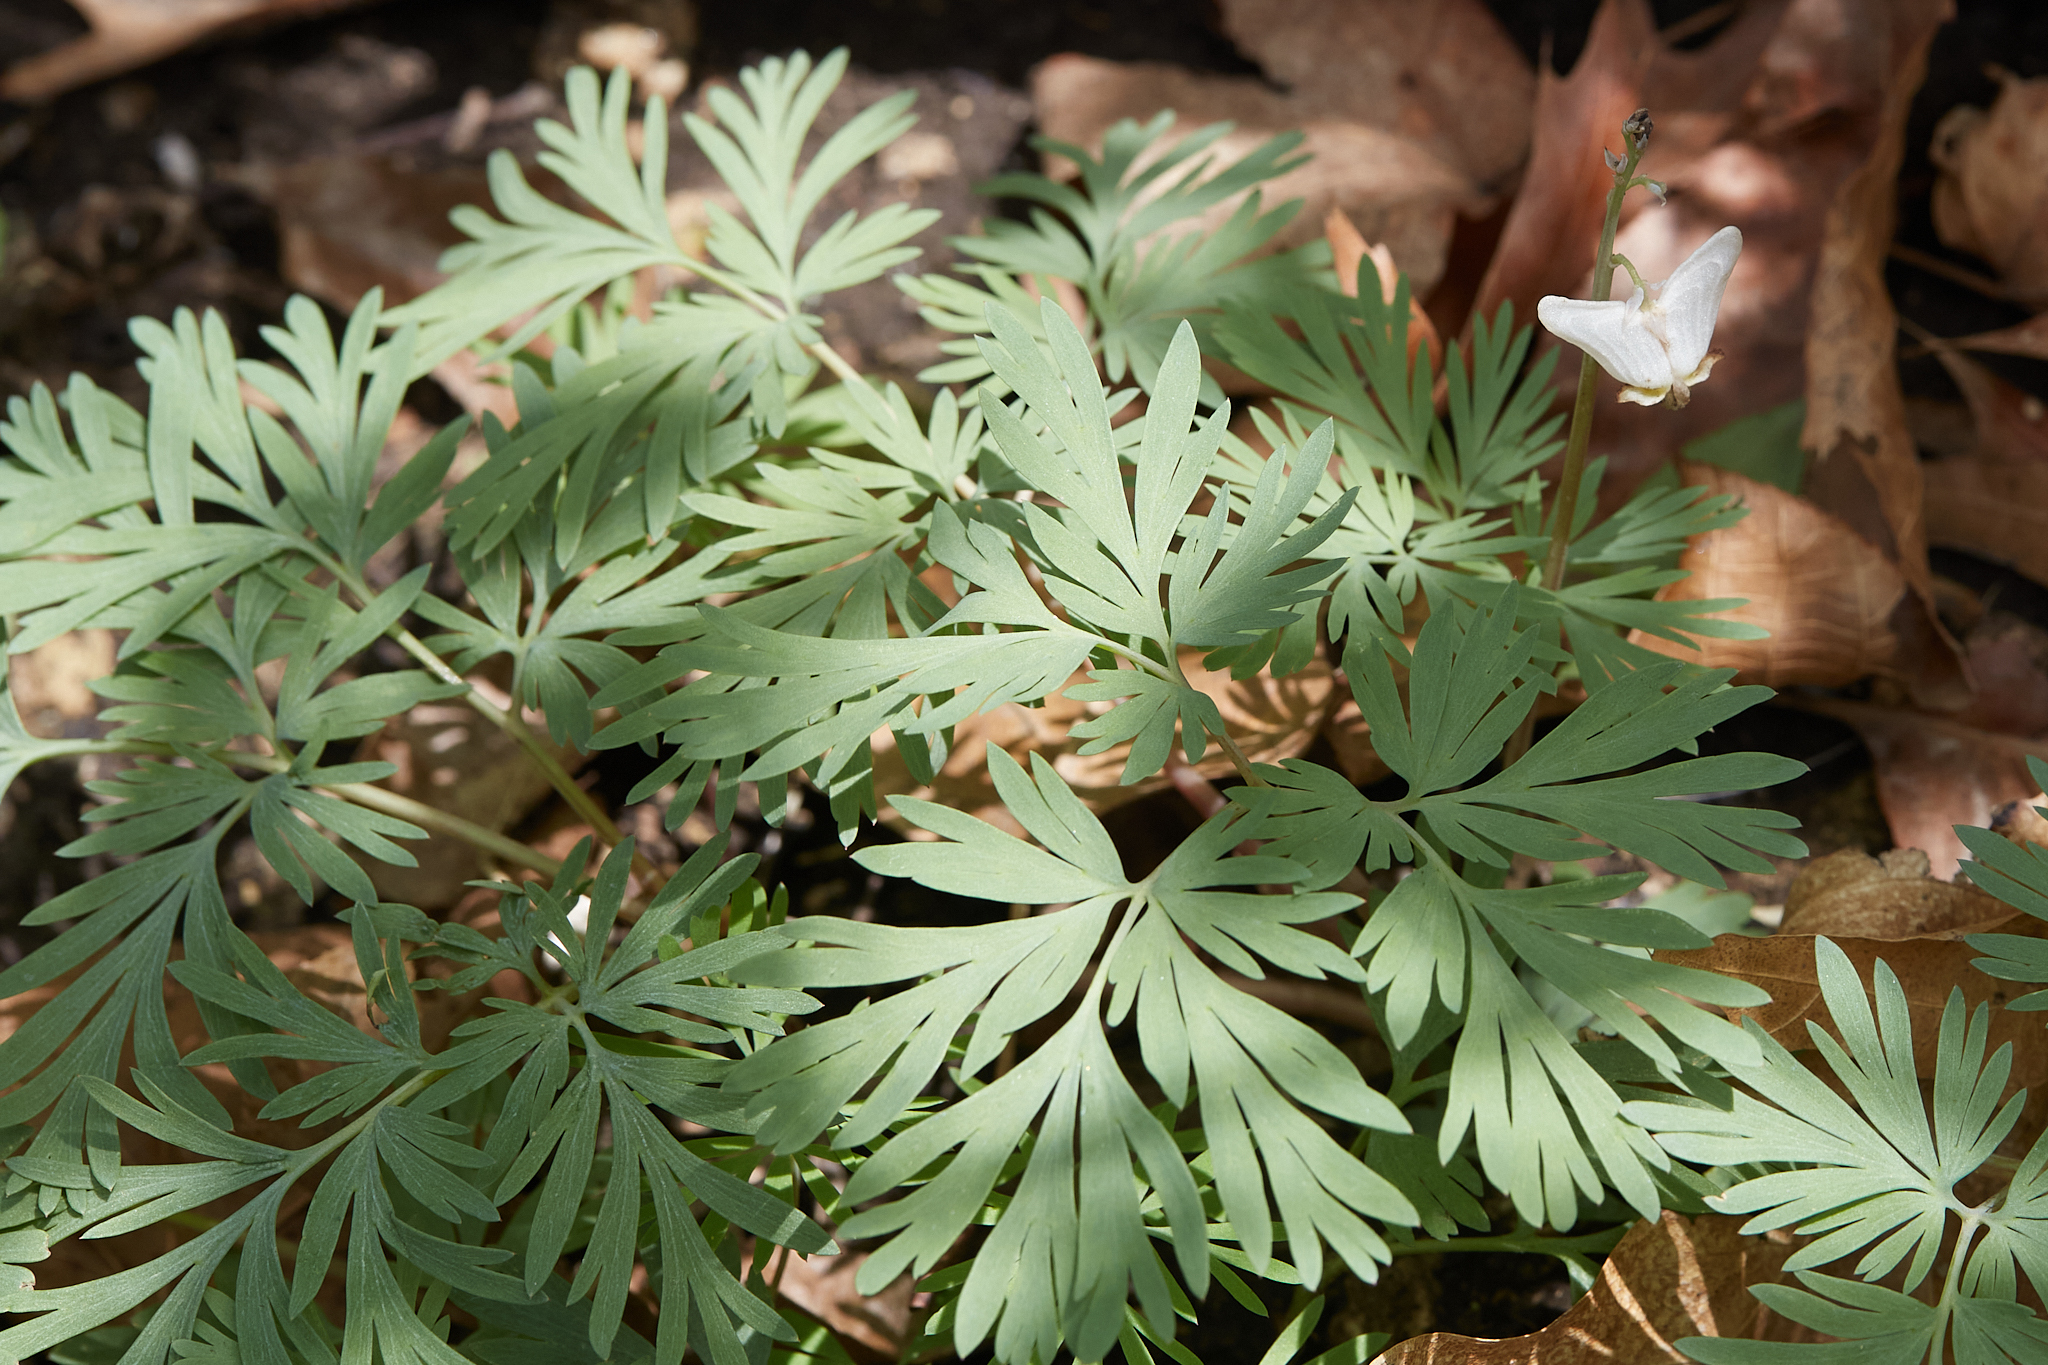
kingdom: Plantae
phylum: Tracheophyta
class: Magnoliopsida
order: Ranunculales
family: Papaveraceae
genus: Dicentra
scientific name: Dicentra cucullaria
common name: Dutchman's breeches
